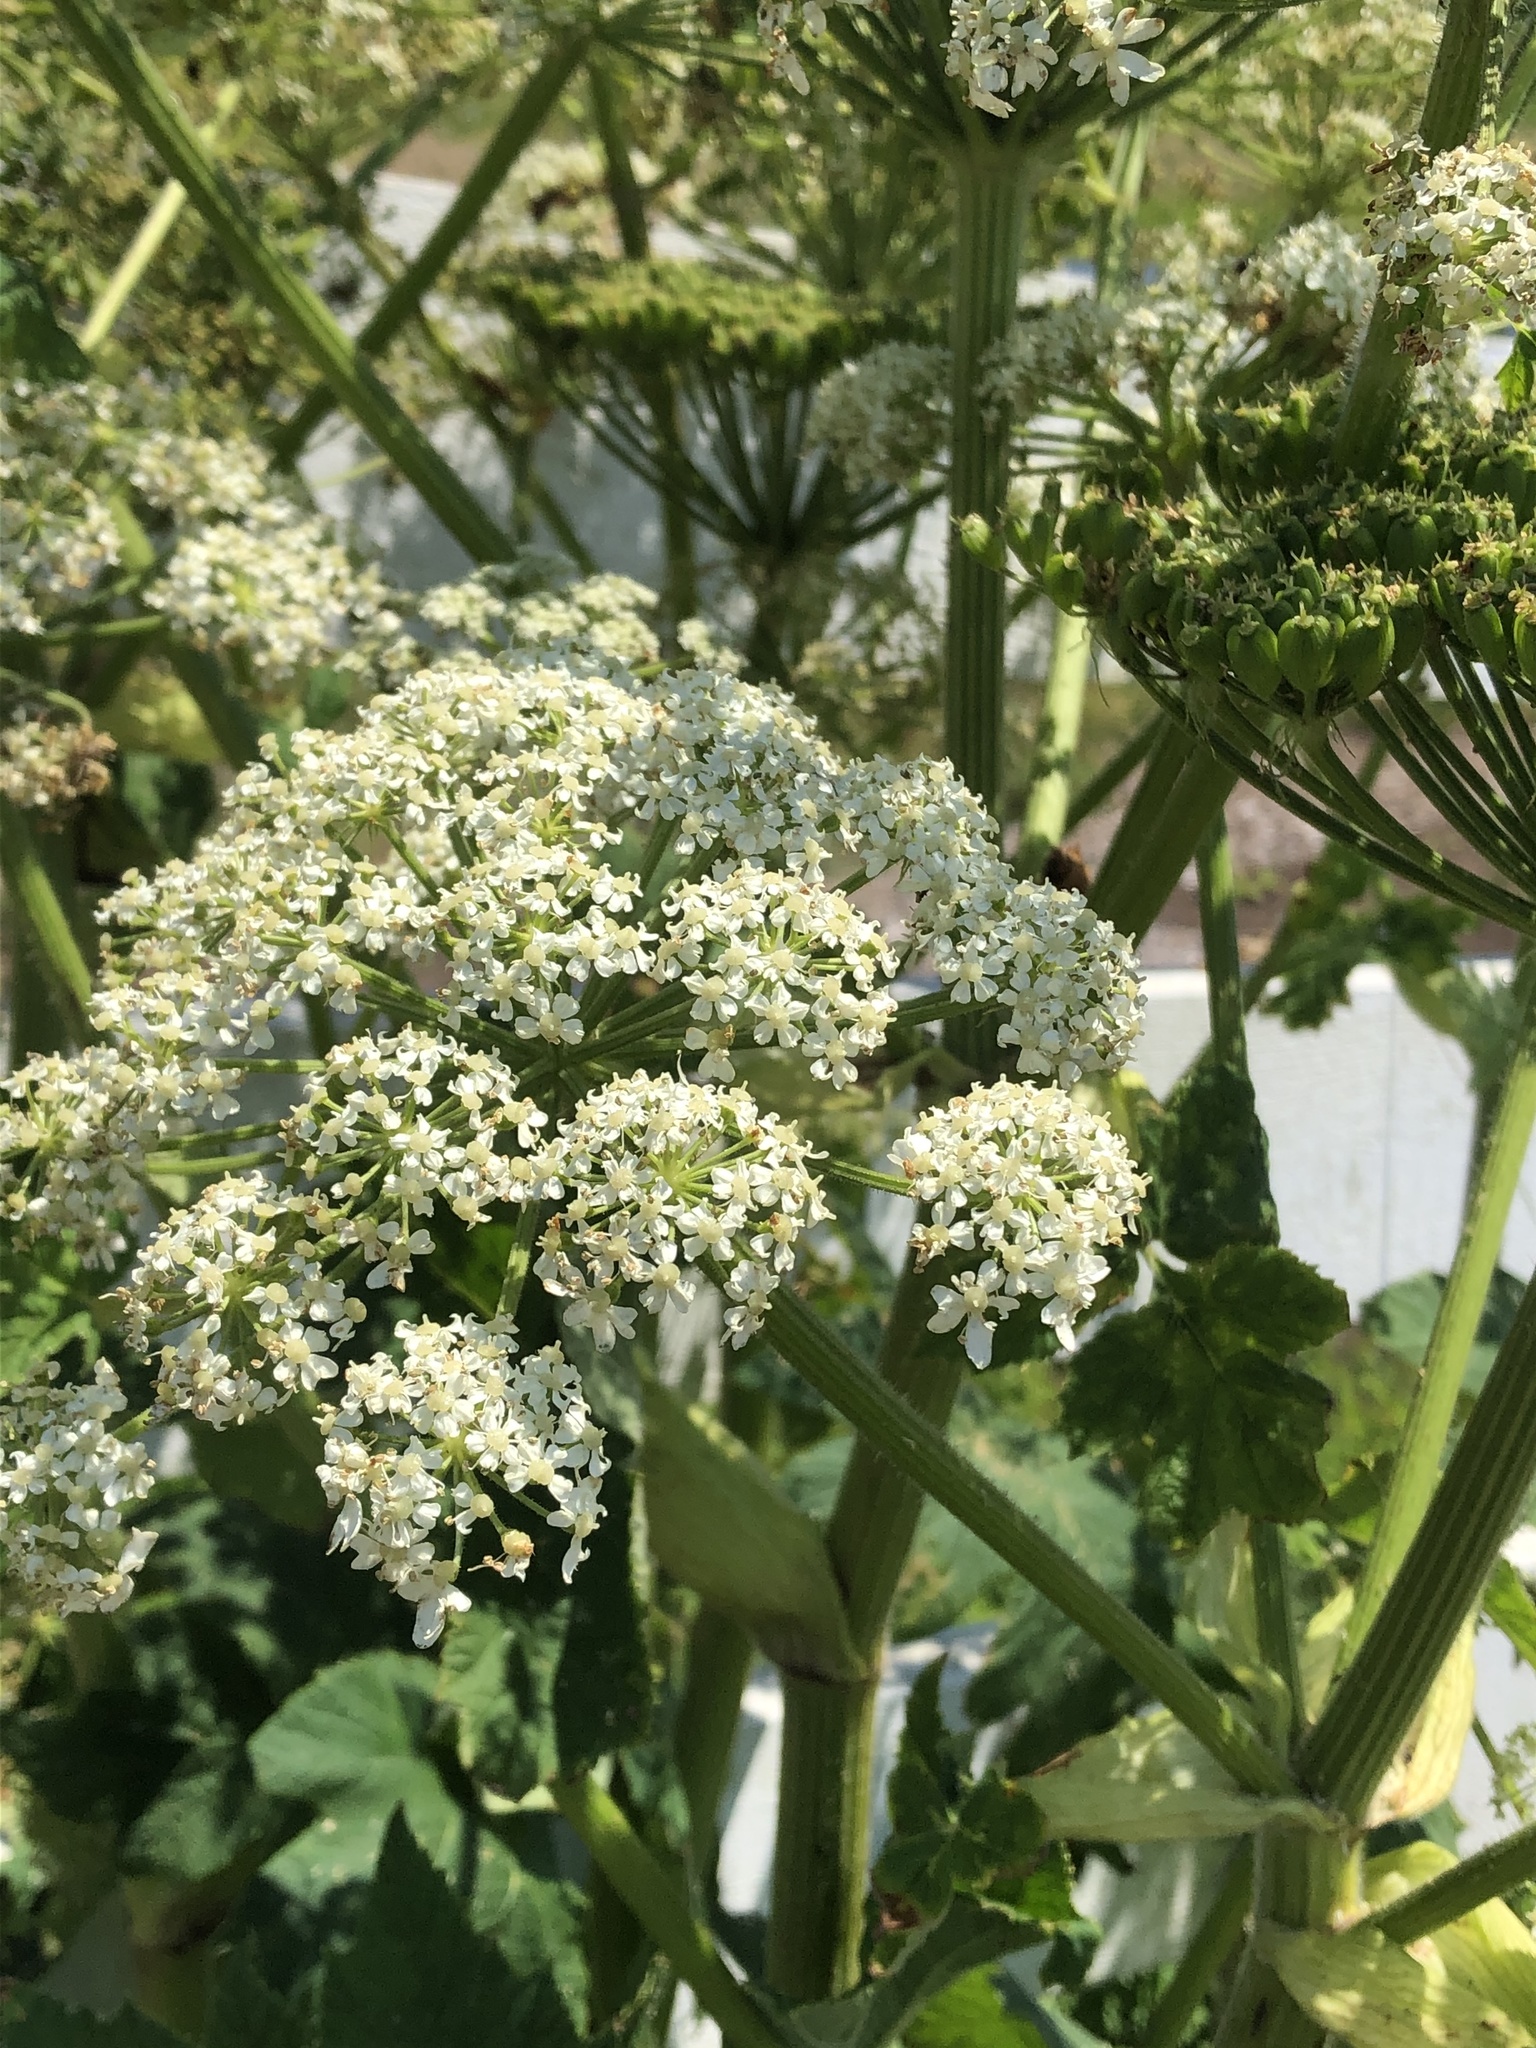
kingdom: Plantae
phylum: Tracheophyta
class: Magnoliopsida
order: Apiales
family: Apiaceae
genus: Heracleum
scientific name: Heracleum maximum
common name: American cow parsnip
